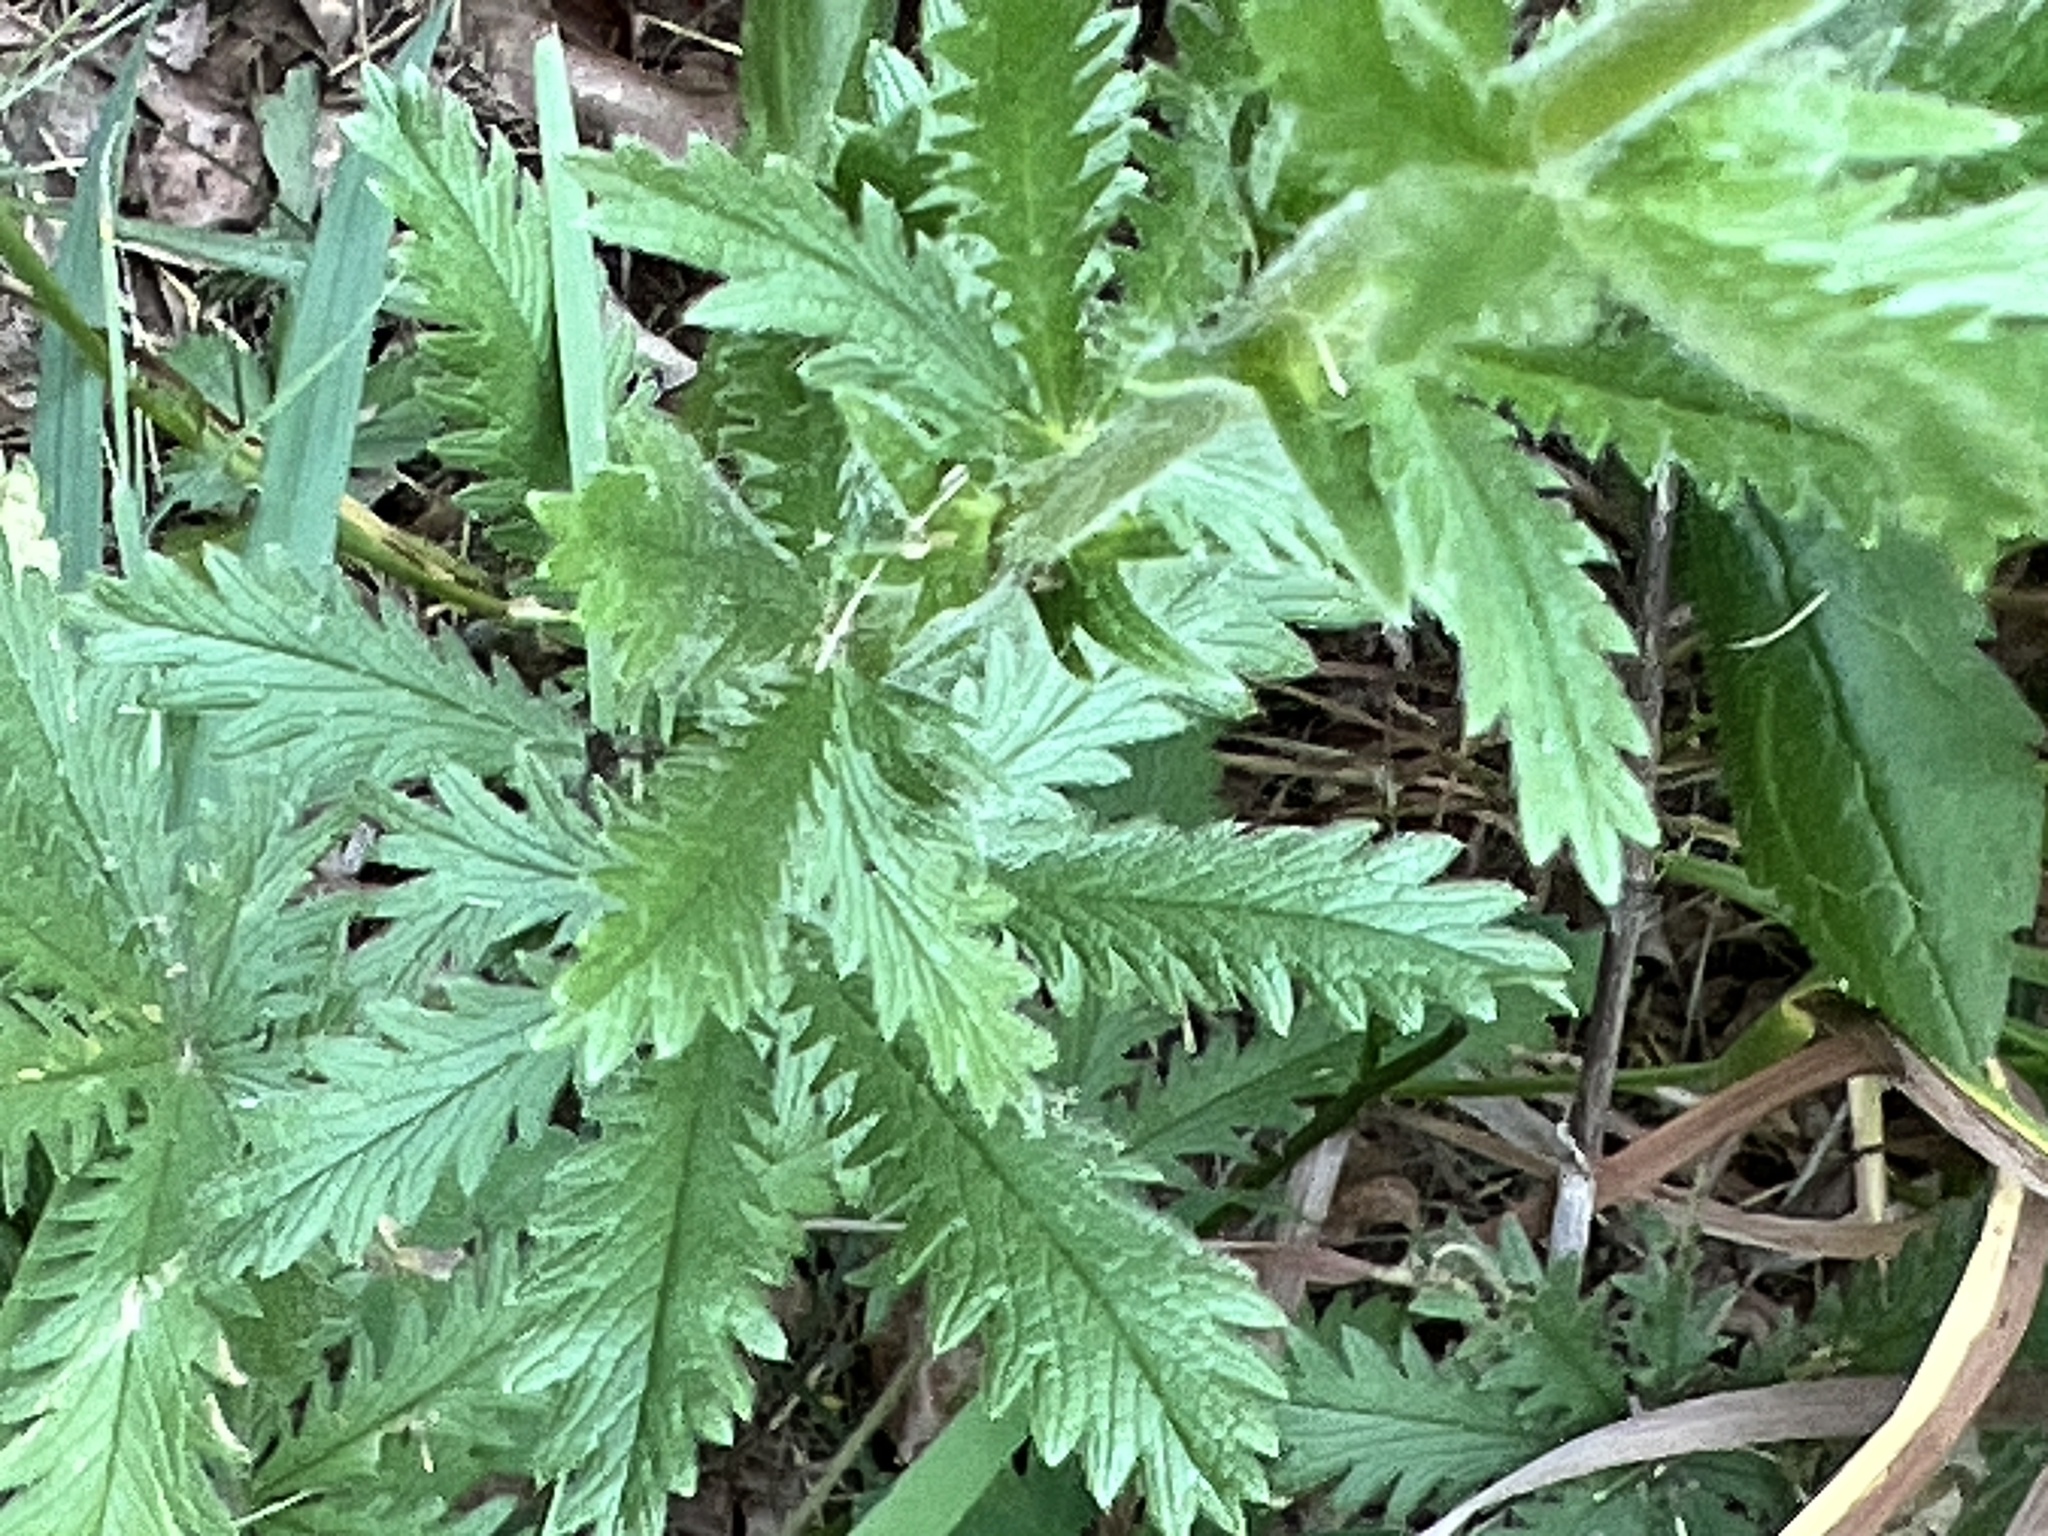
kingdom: Plantae
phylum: Tracheophyta
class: Magnoliopsida
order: Rosales
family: Rosaceae
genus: Potentilla
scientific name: Potentilla recta
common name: Sulphur cinquefoil
